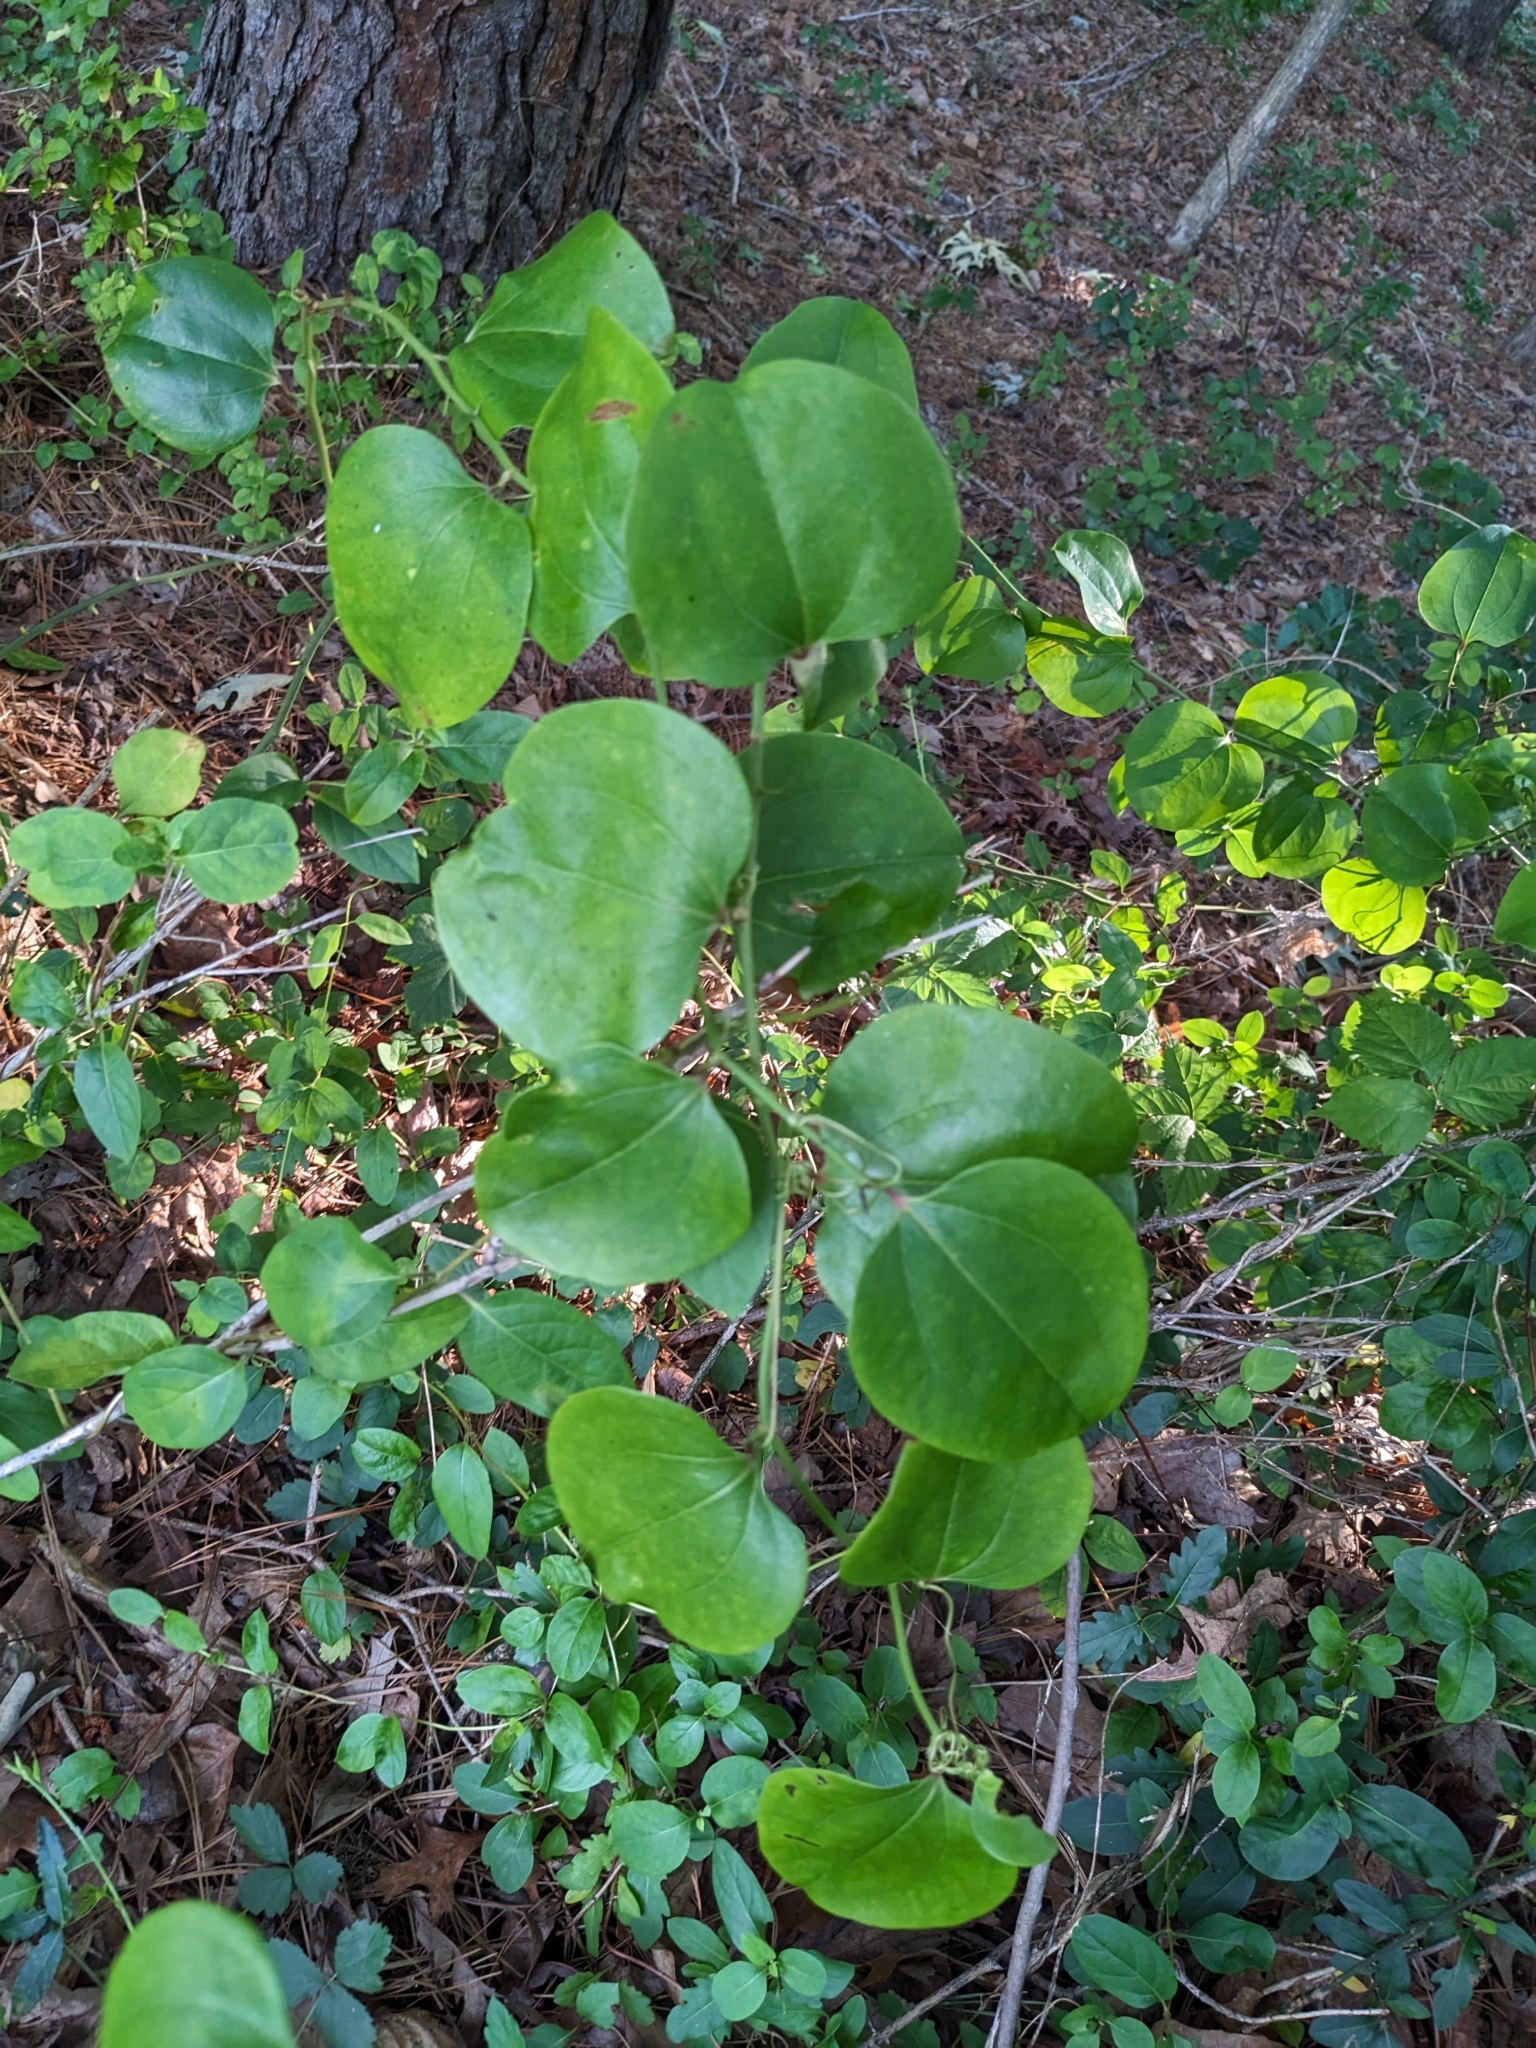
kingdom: Plantae
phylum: Tracheophyta
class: Liliopsida
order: Liliales
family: Smilacaceae
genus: Smilax
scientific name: Smilax rotundifolia
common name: Bullbriar
